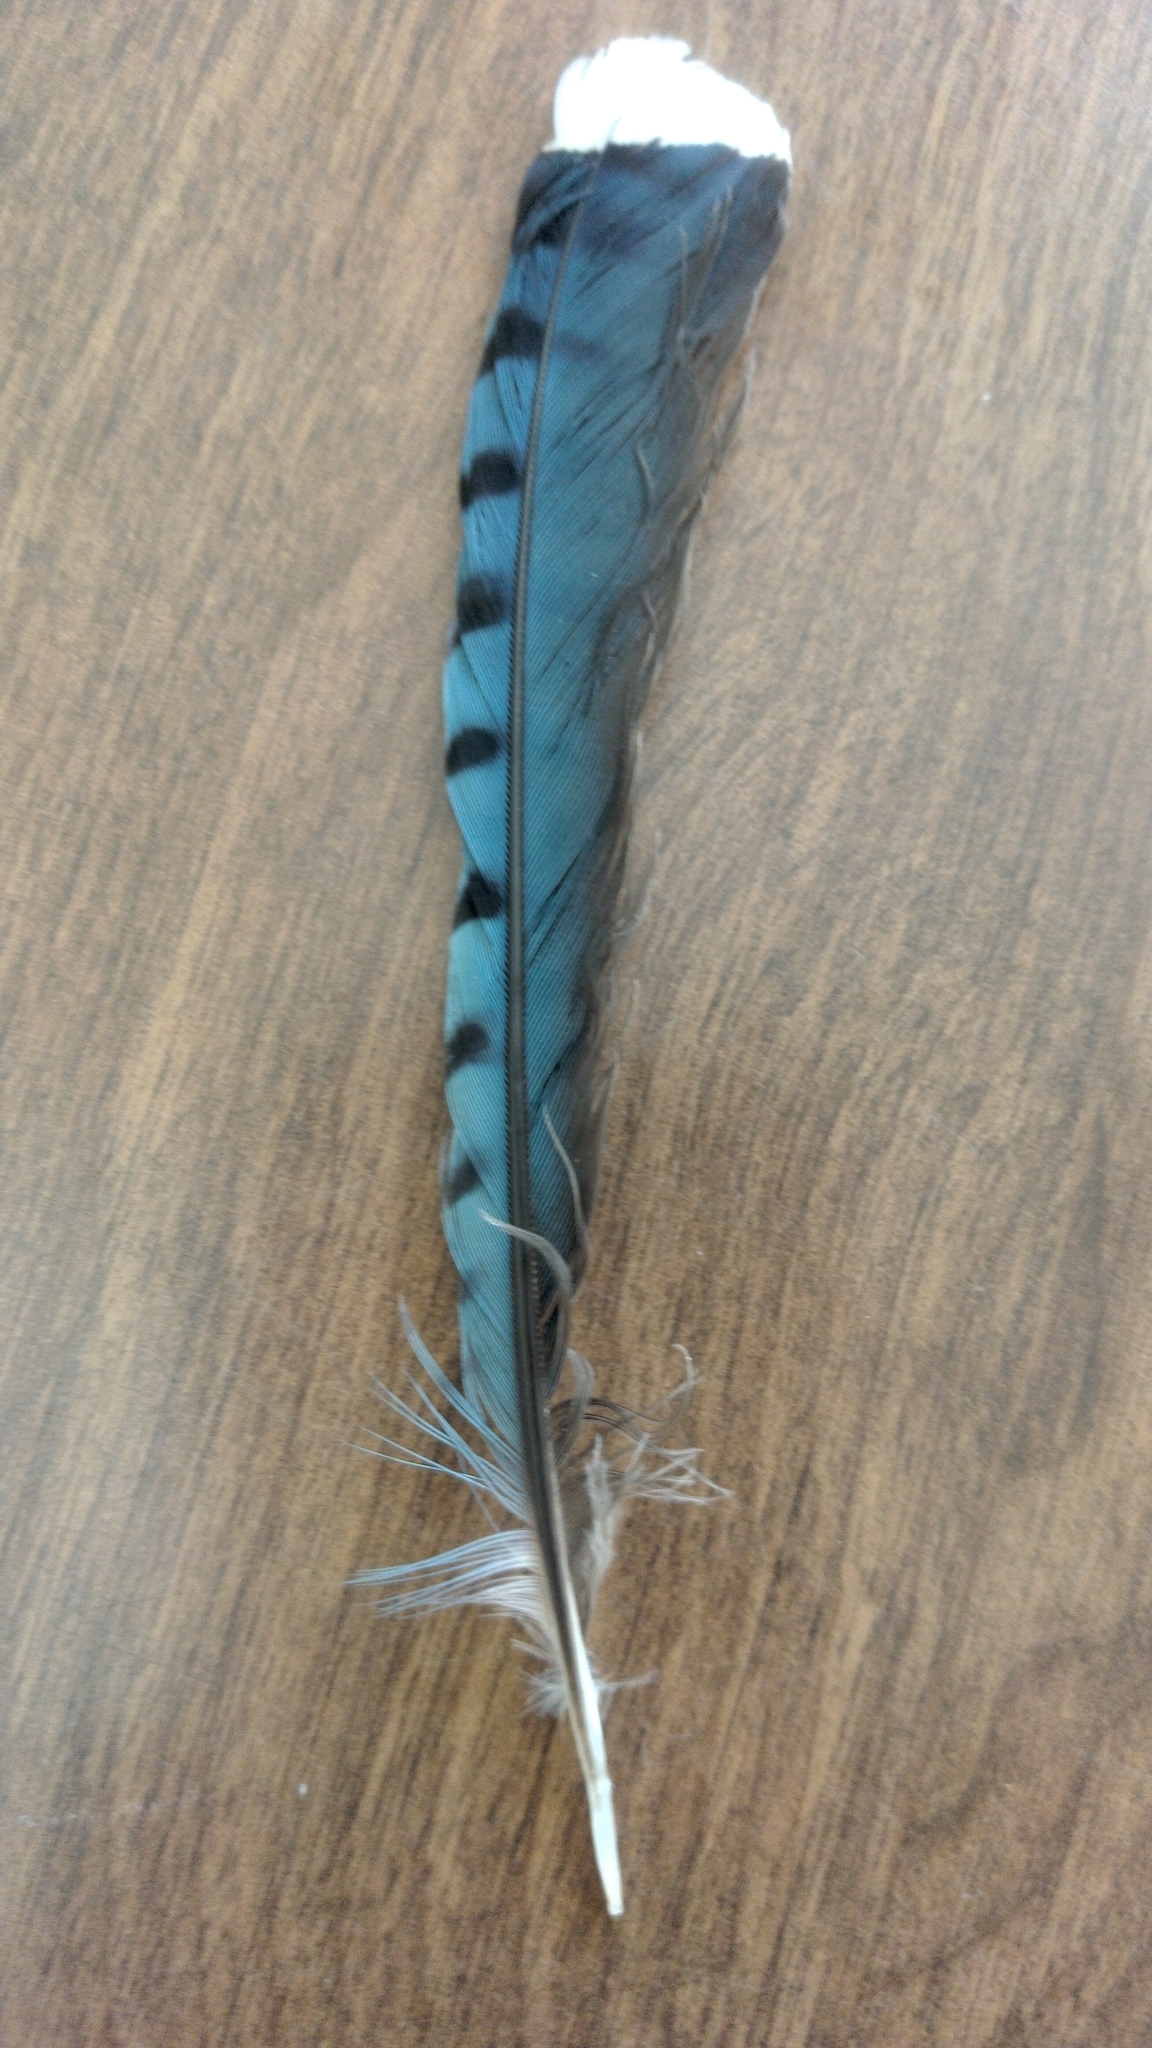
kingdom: Animalia
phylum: Chordata
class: Aves
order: Passeriformes
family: Corvidae
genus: Cyanocitta
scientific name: Cyanocitta cristata
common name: Blue jay
